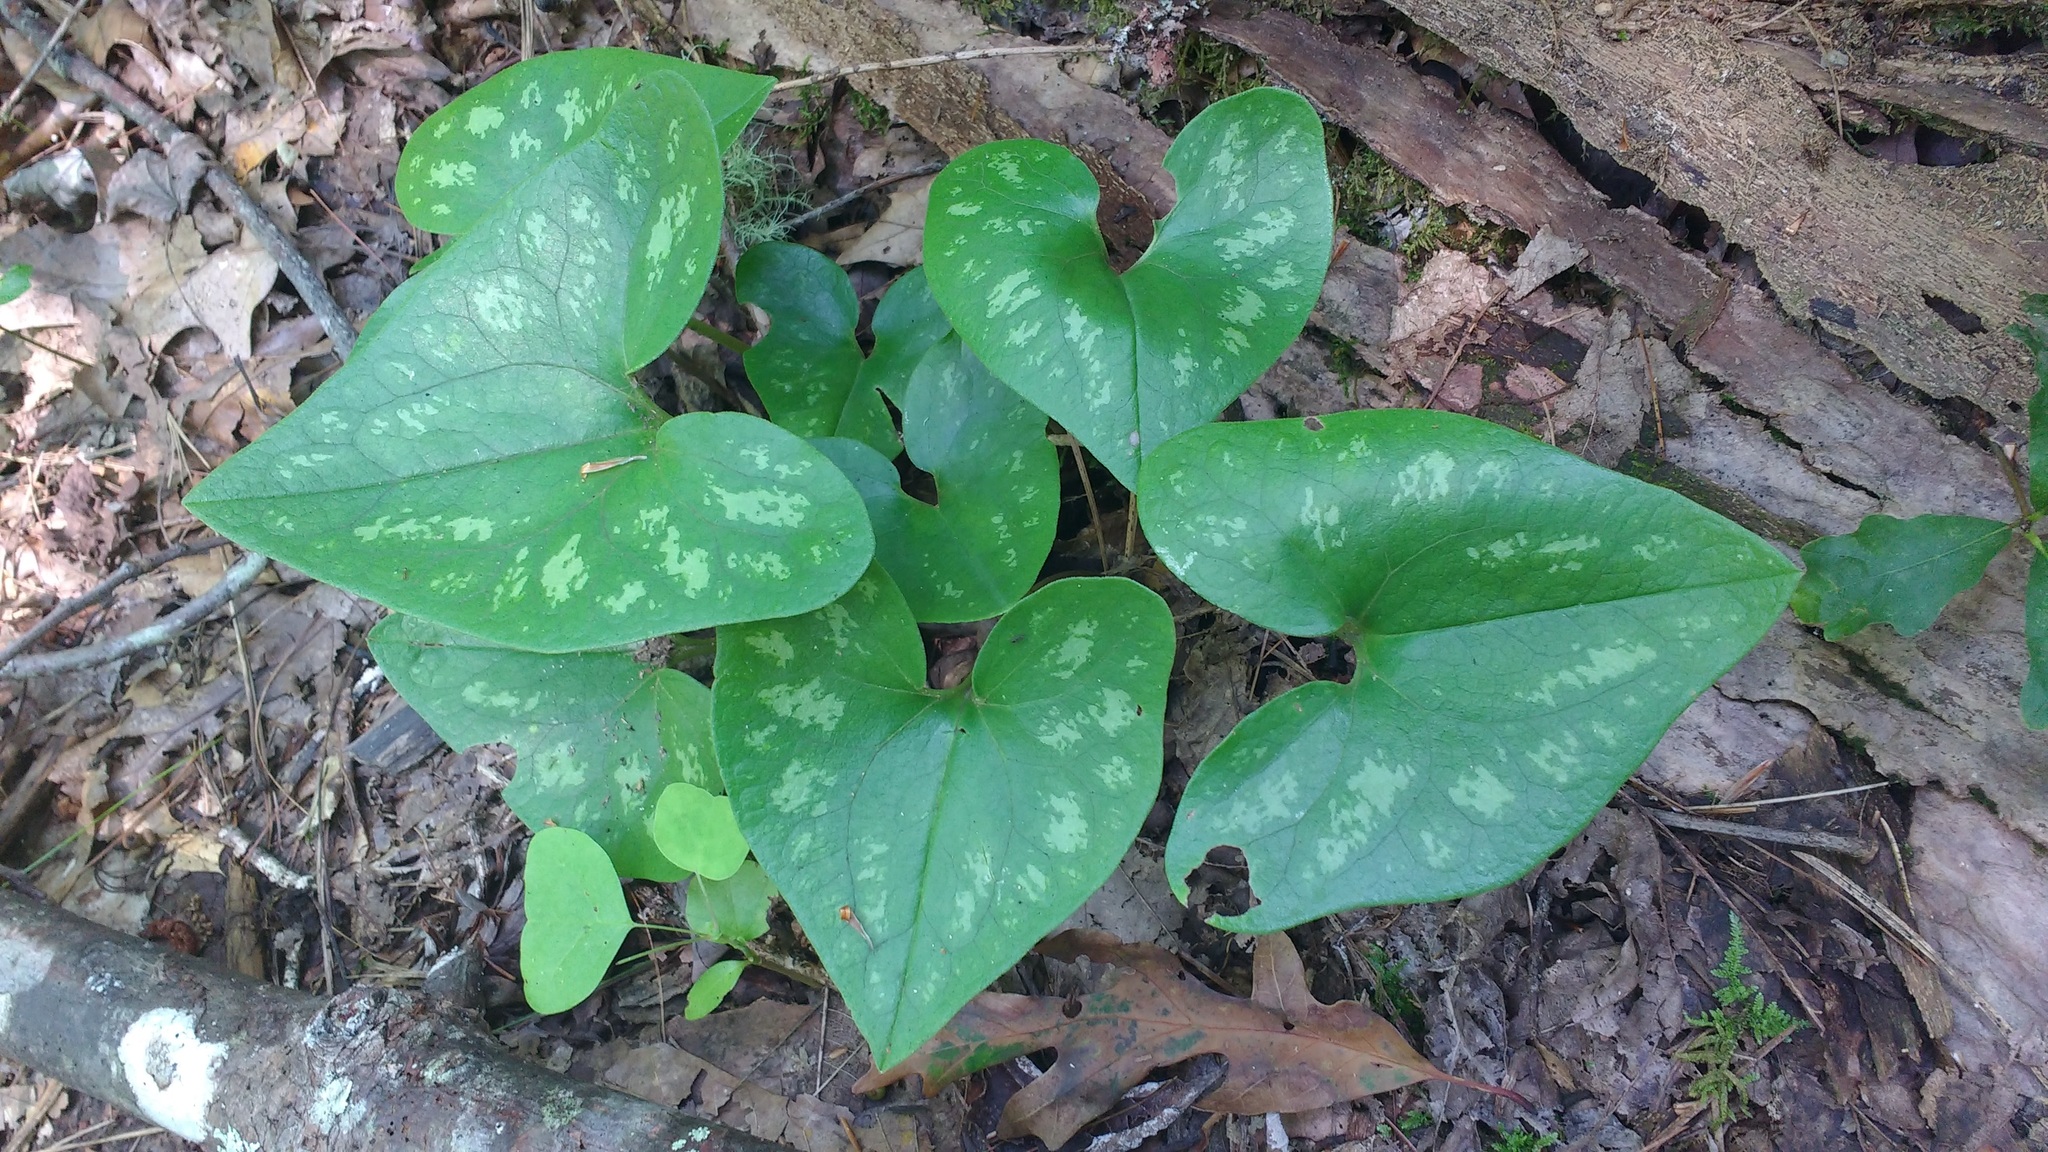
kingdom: Plantae
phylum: Tracheophyta
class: Magnoliopsida
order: Piperales
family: Aristolochiaceae
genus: Hexastylis
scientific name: Hexastylis arifolia
